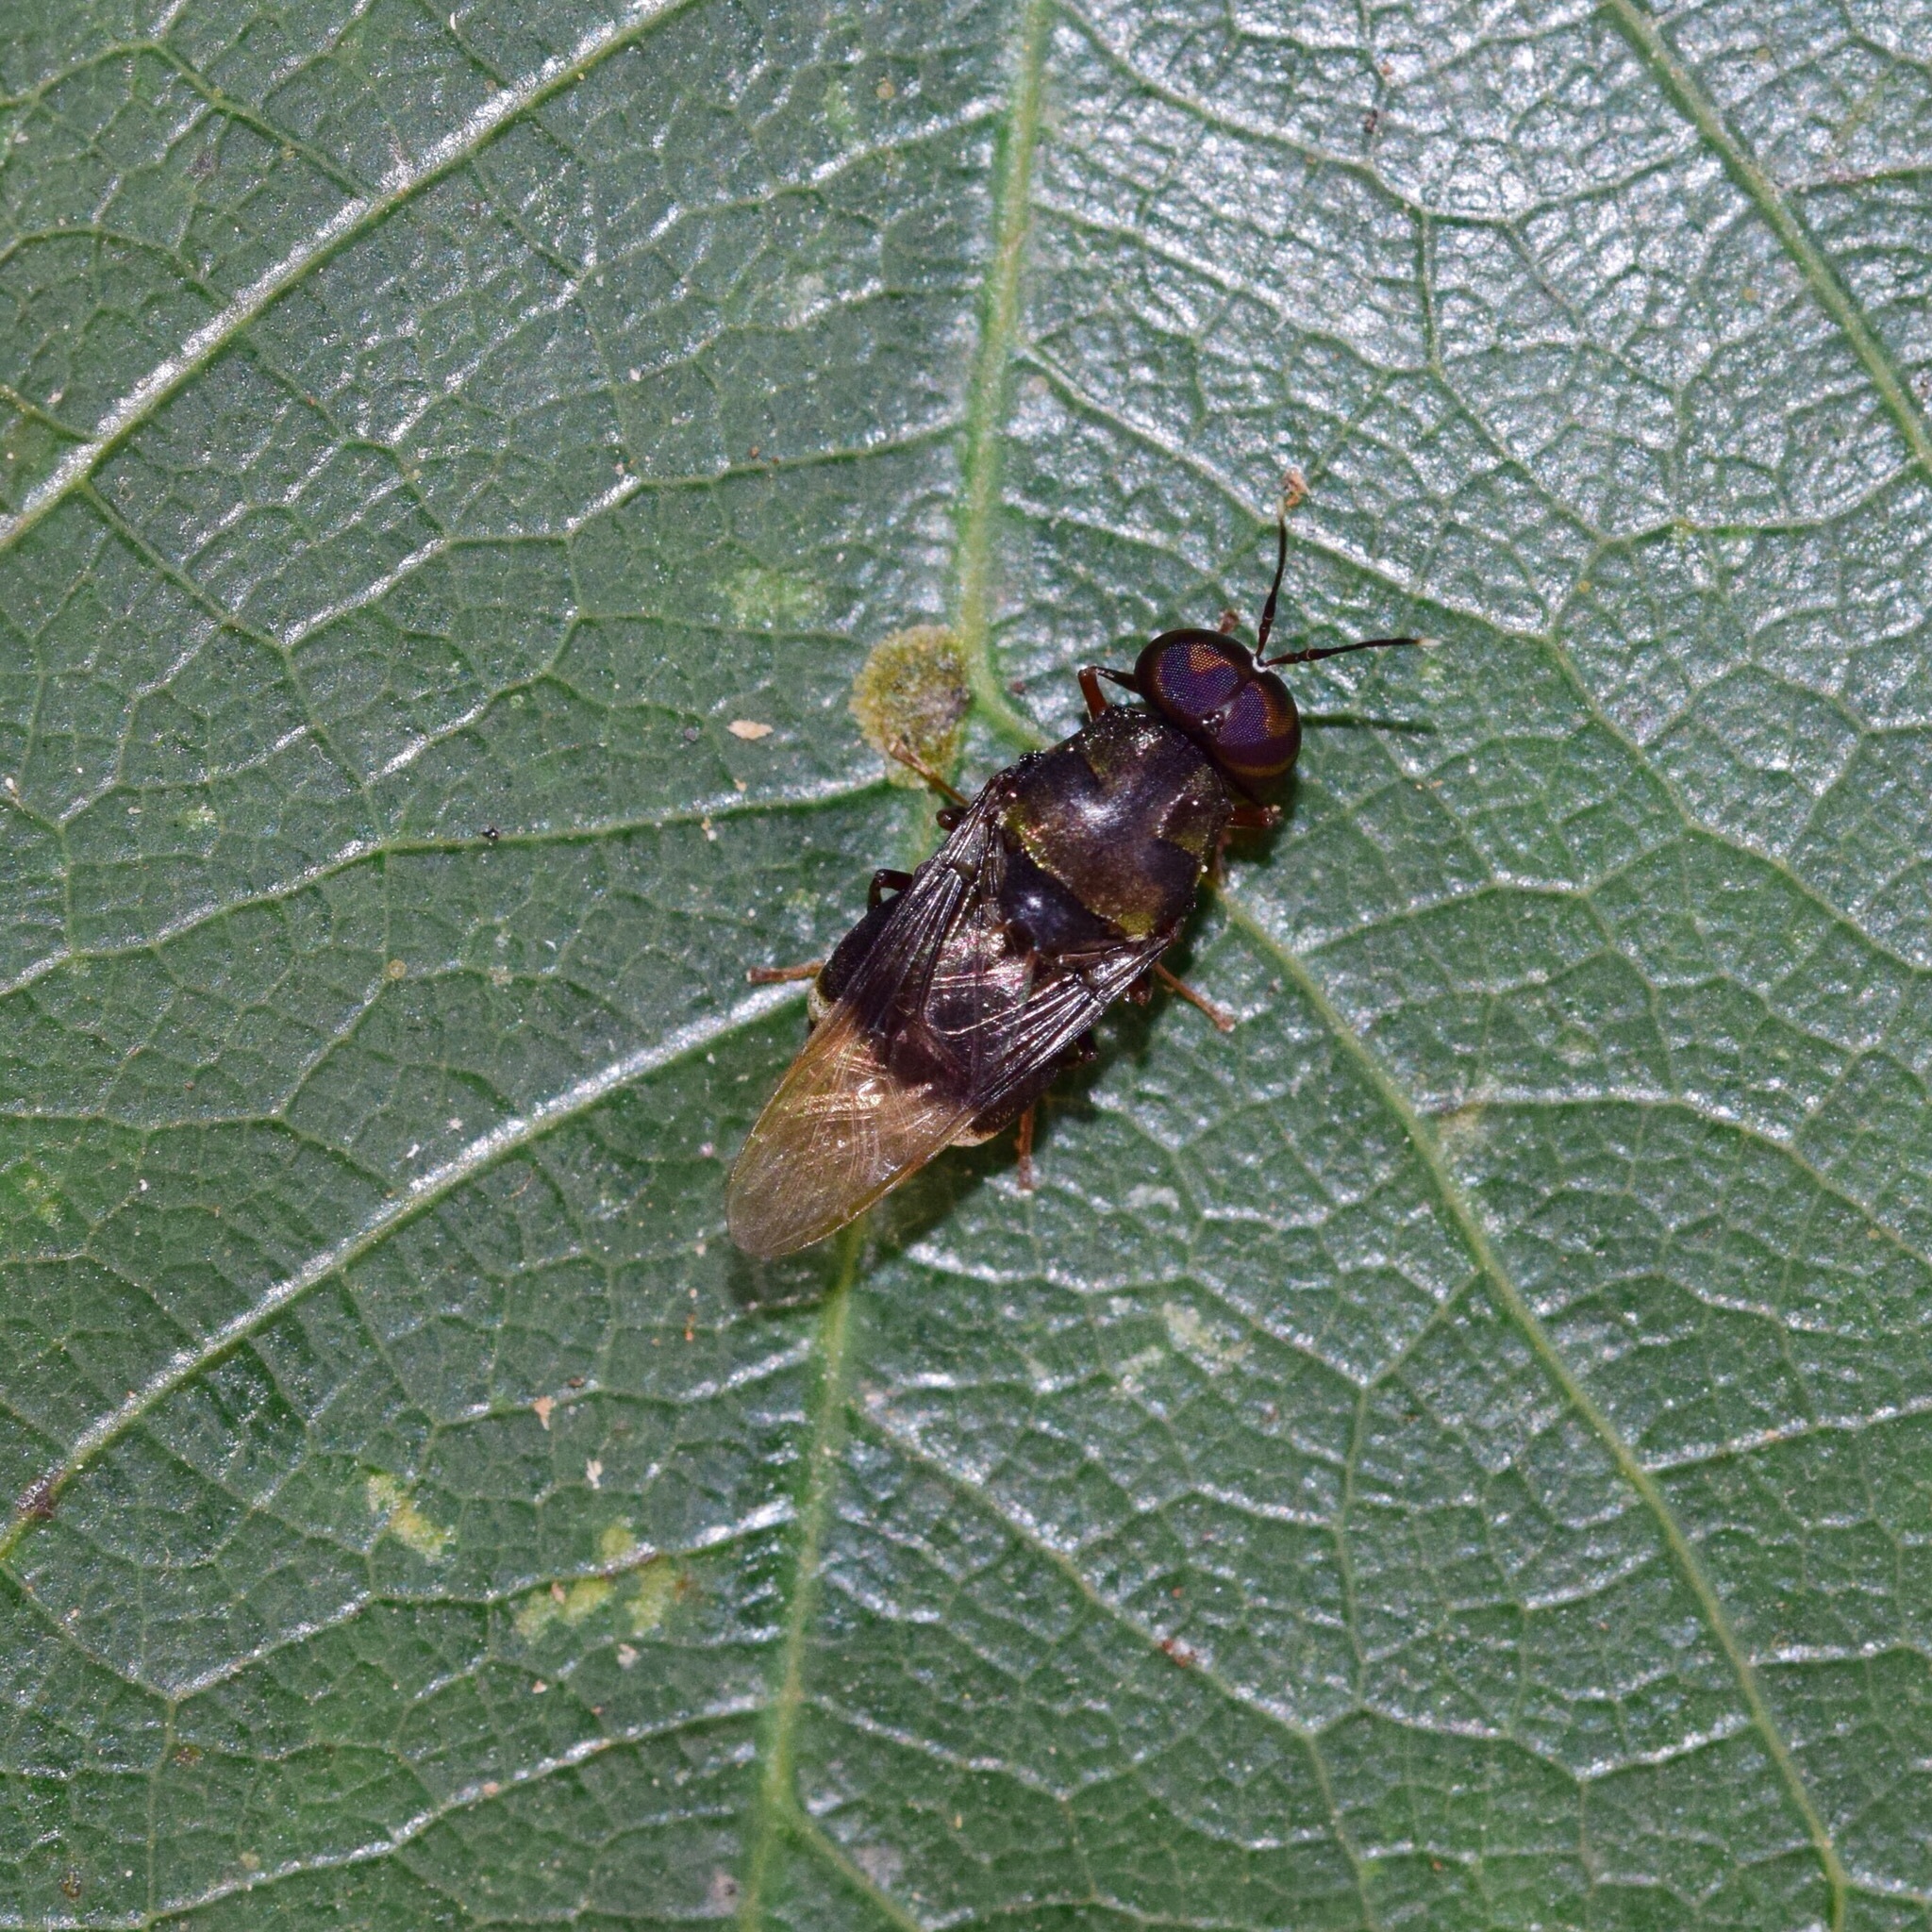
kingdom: Animalia
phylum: Arthropoda
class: Insecta
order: Diptera
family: Stratiomyidae
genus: Isomerocera
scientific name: Isomerocera quadrilineata
